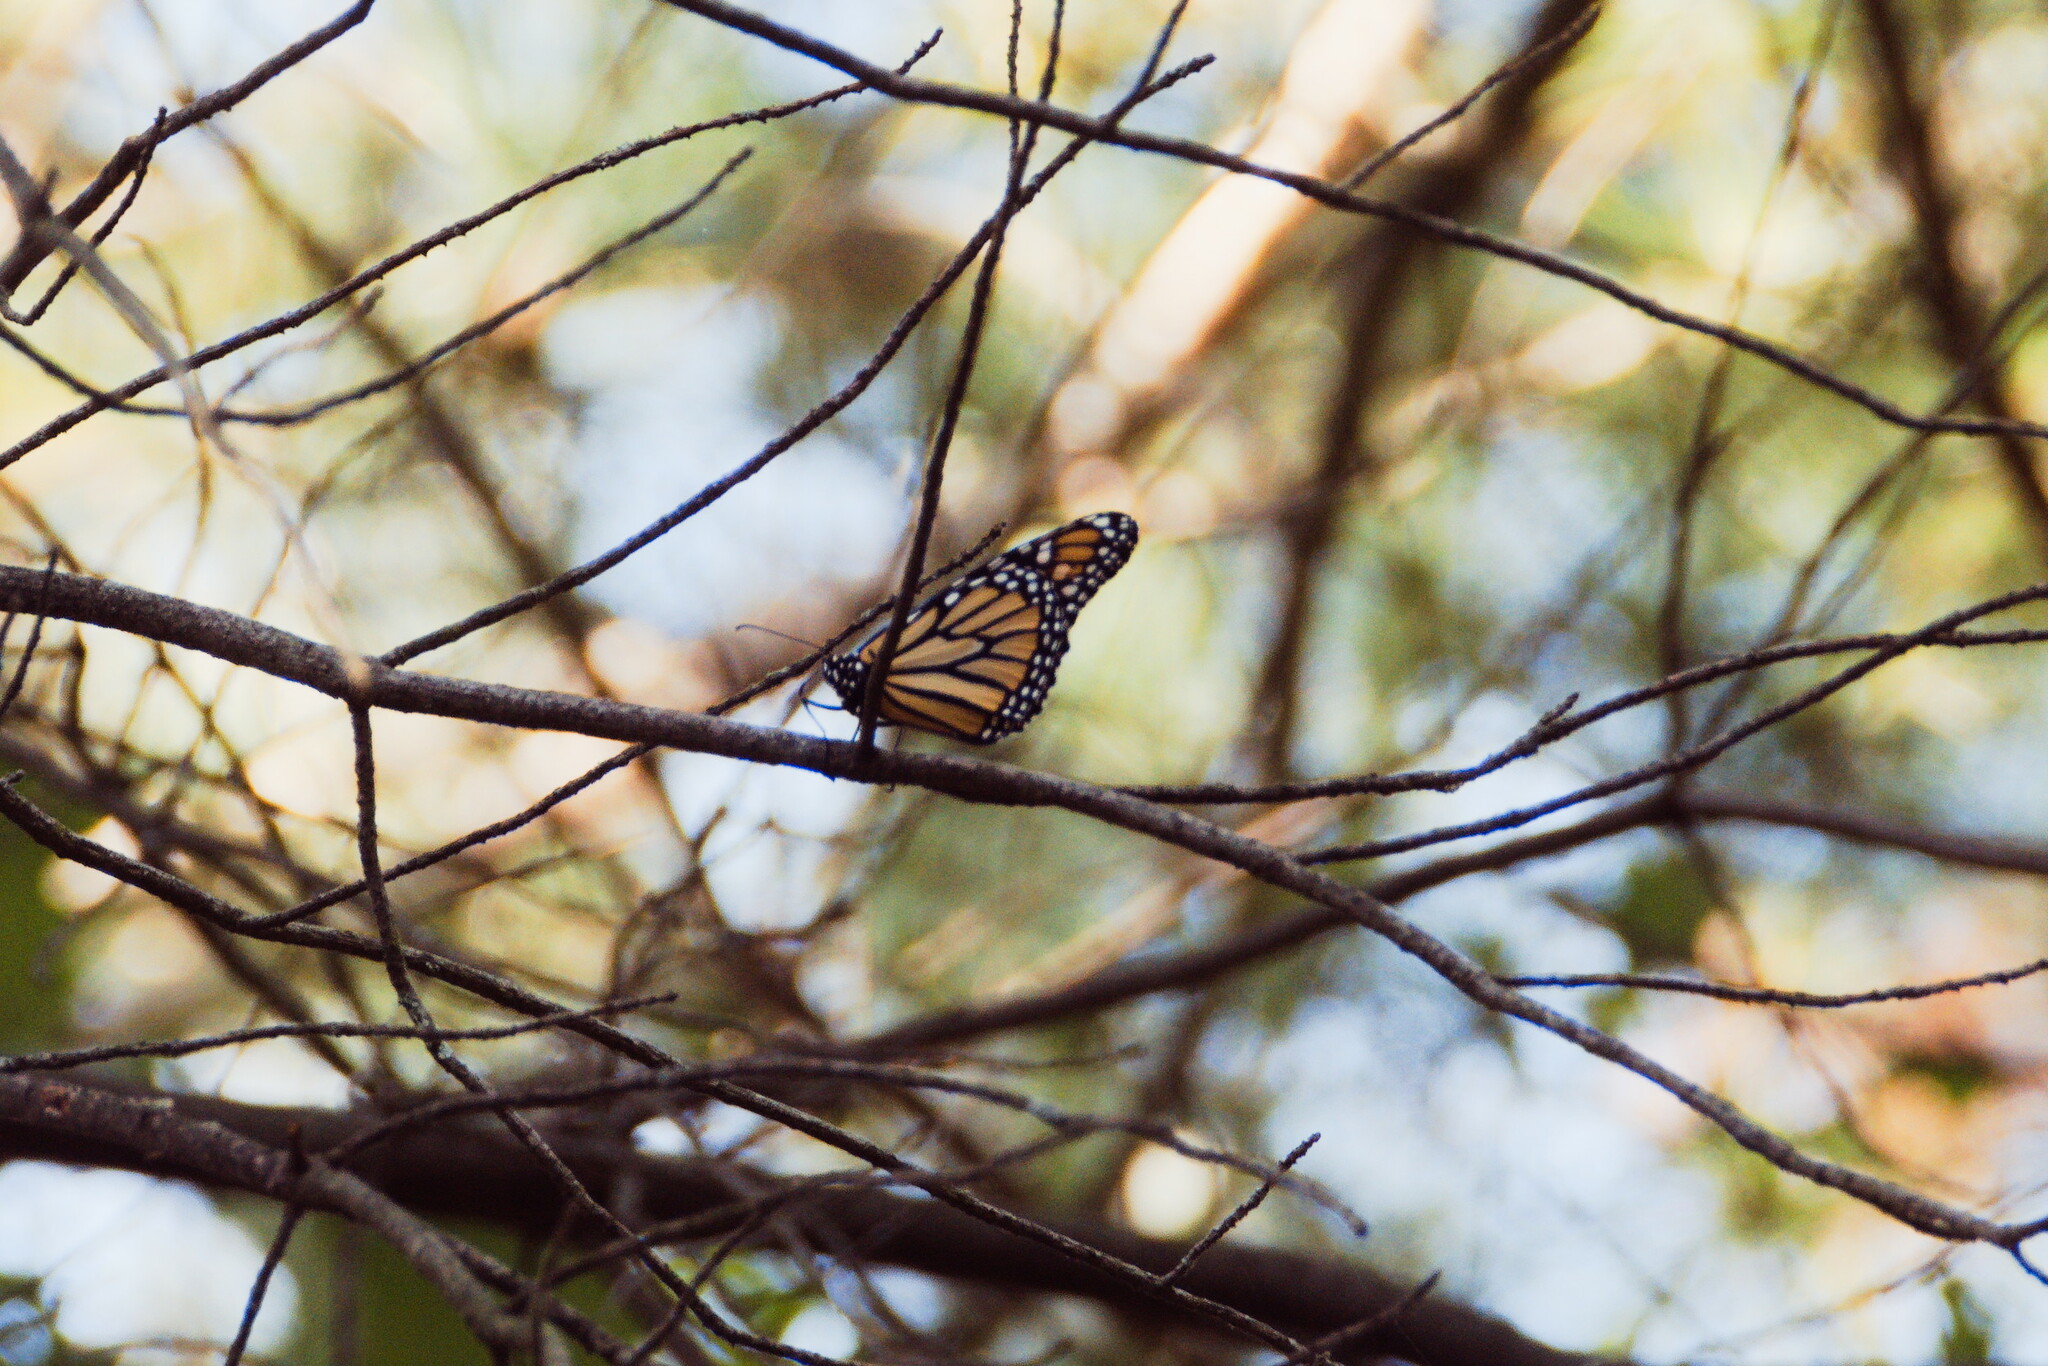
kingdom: Animalia
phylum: Arthropoda
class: Insecta
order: Lepidoptera
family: Nymphalidae
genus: Danaus
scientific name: Danaus plexippus
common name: Monarch
